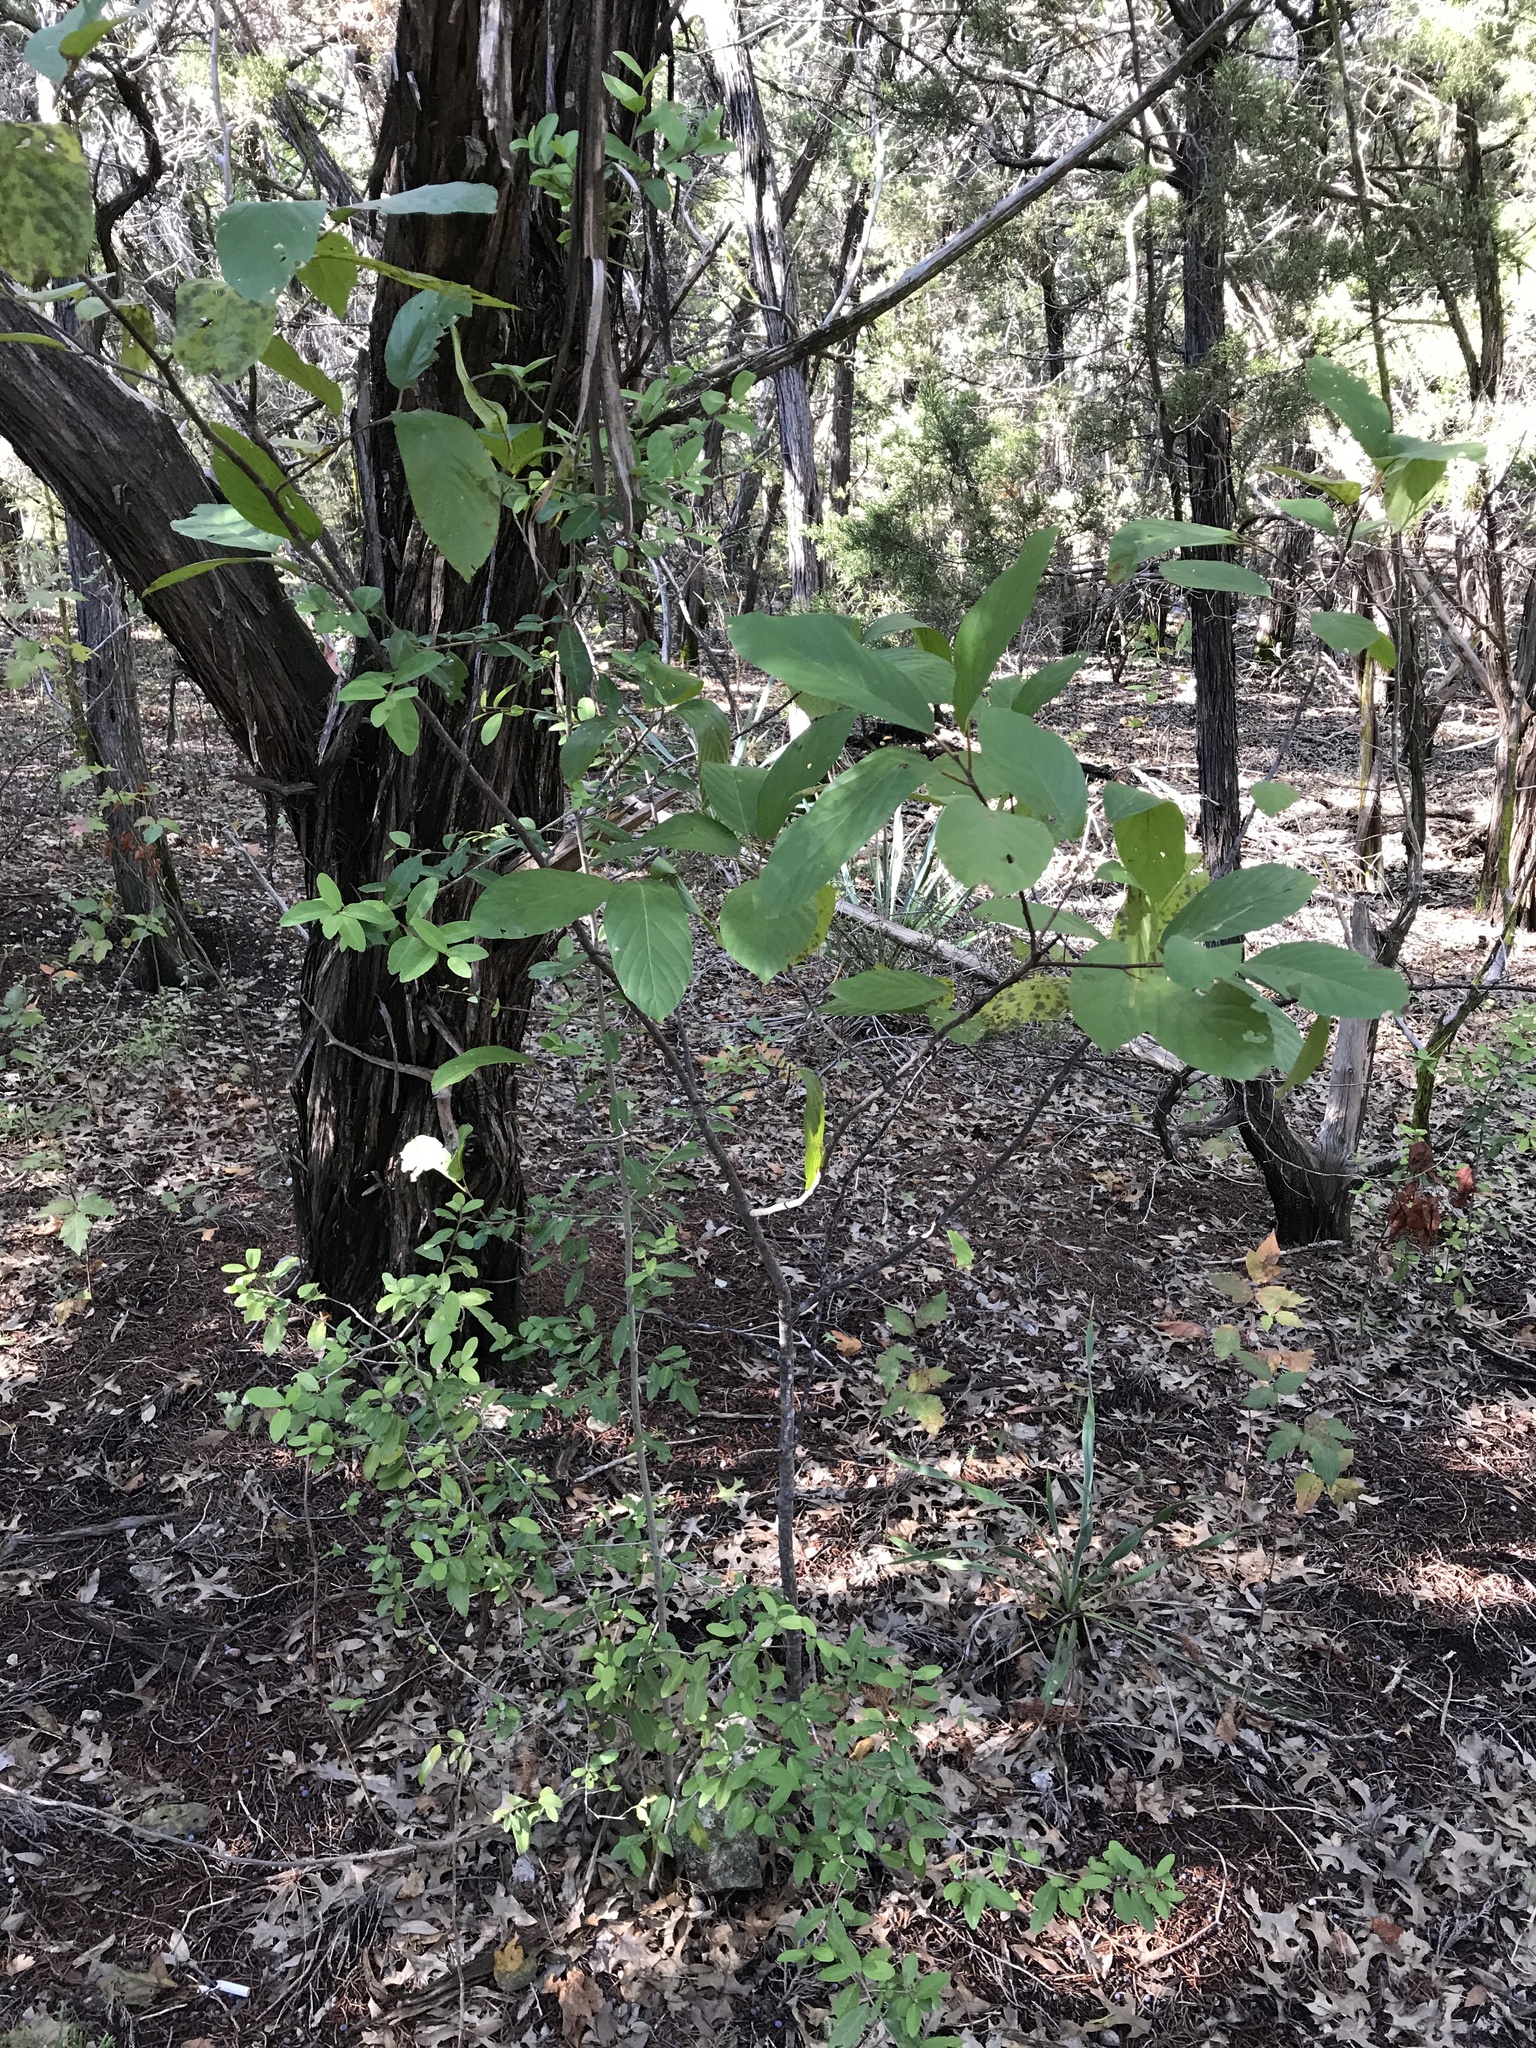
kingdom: Plantae
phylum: Tracheophyta
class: Magnoliopsida
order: Rosales
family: Rhamnaceae
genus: Frangula
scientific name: Frangula caroliniana
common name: Carolina buckthorn
